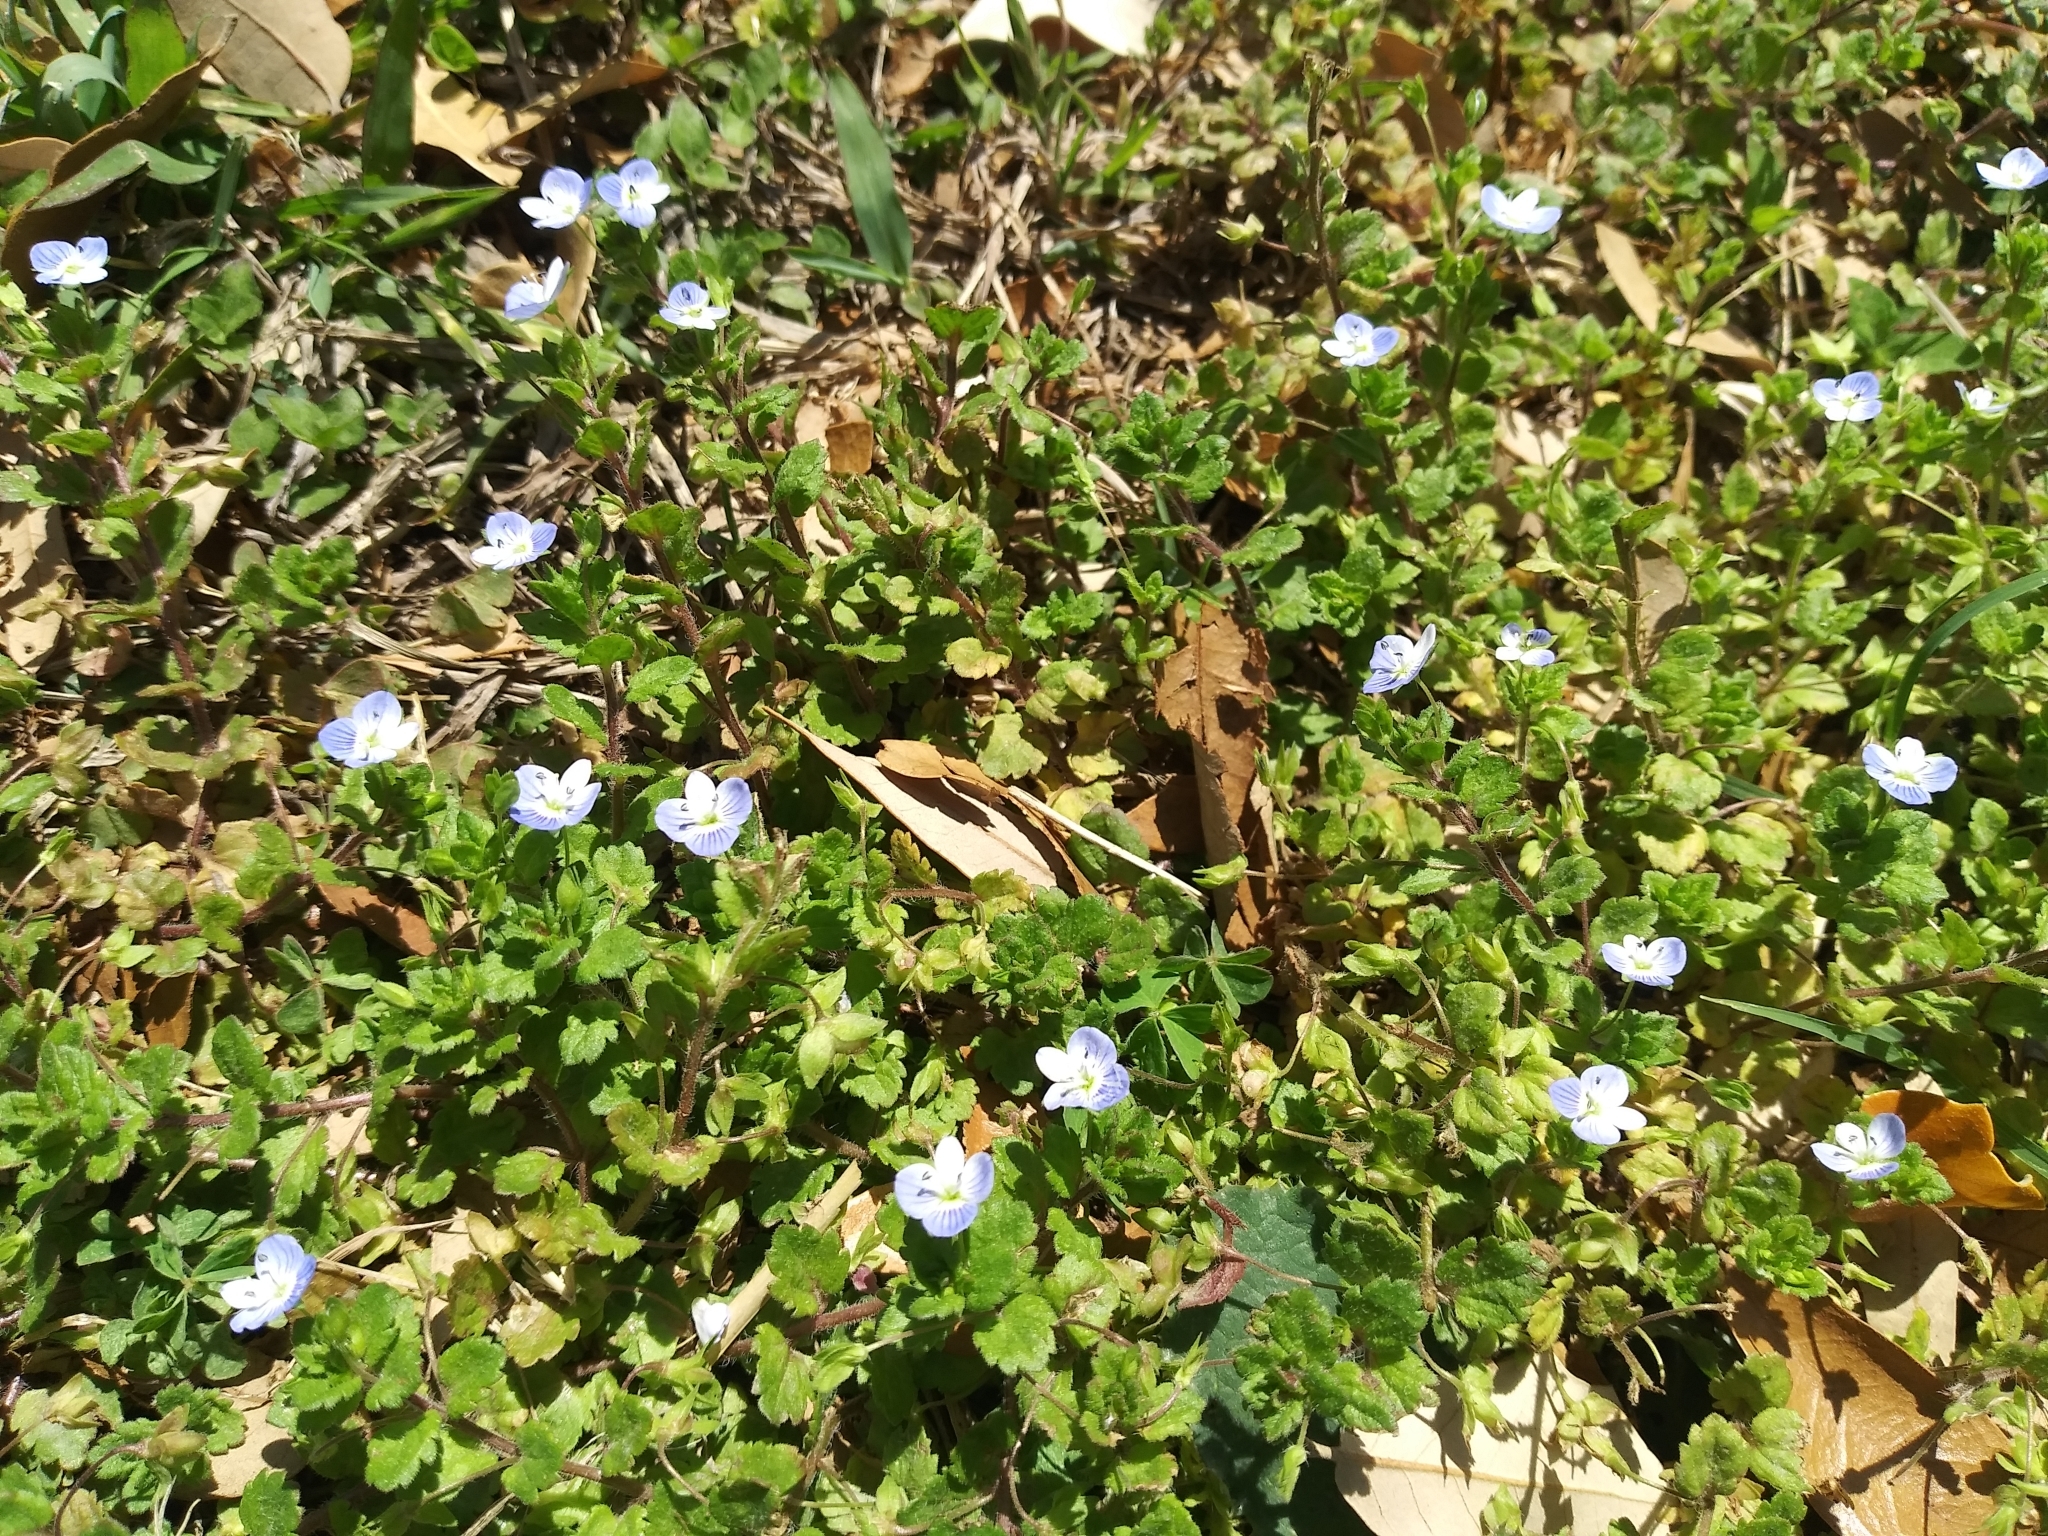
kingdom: Plantae
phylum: Tracheophyta
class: Magnoliopsida
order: Lamiales
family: Plantaginaceae
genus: Veronica
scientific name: Veronica persica
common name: Common field-speedwell
